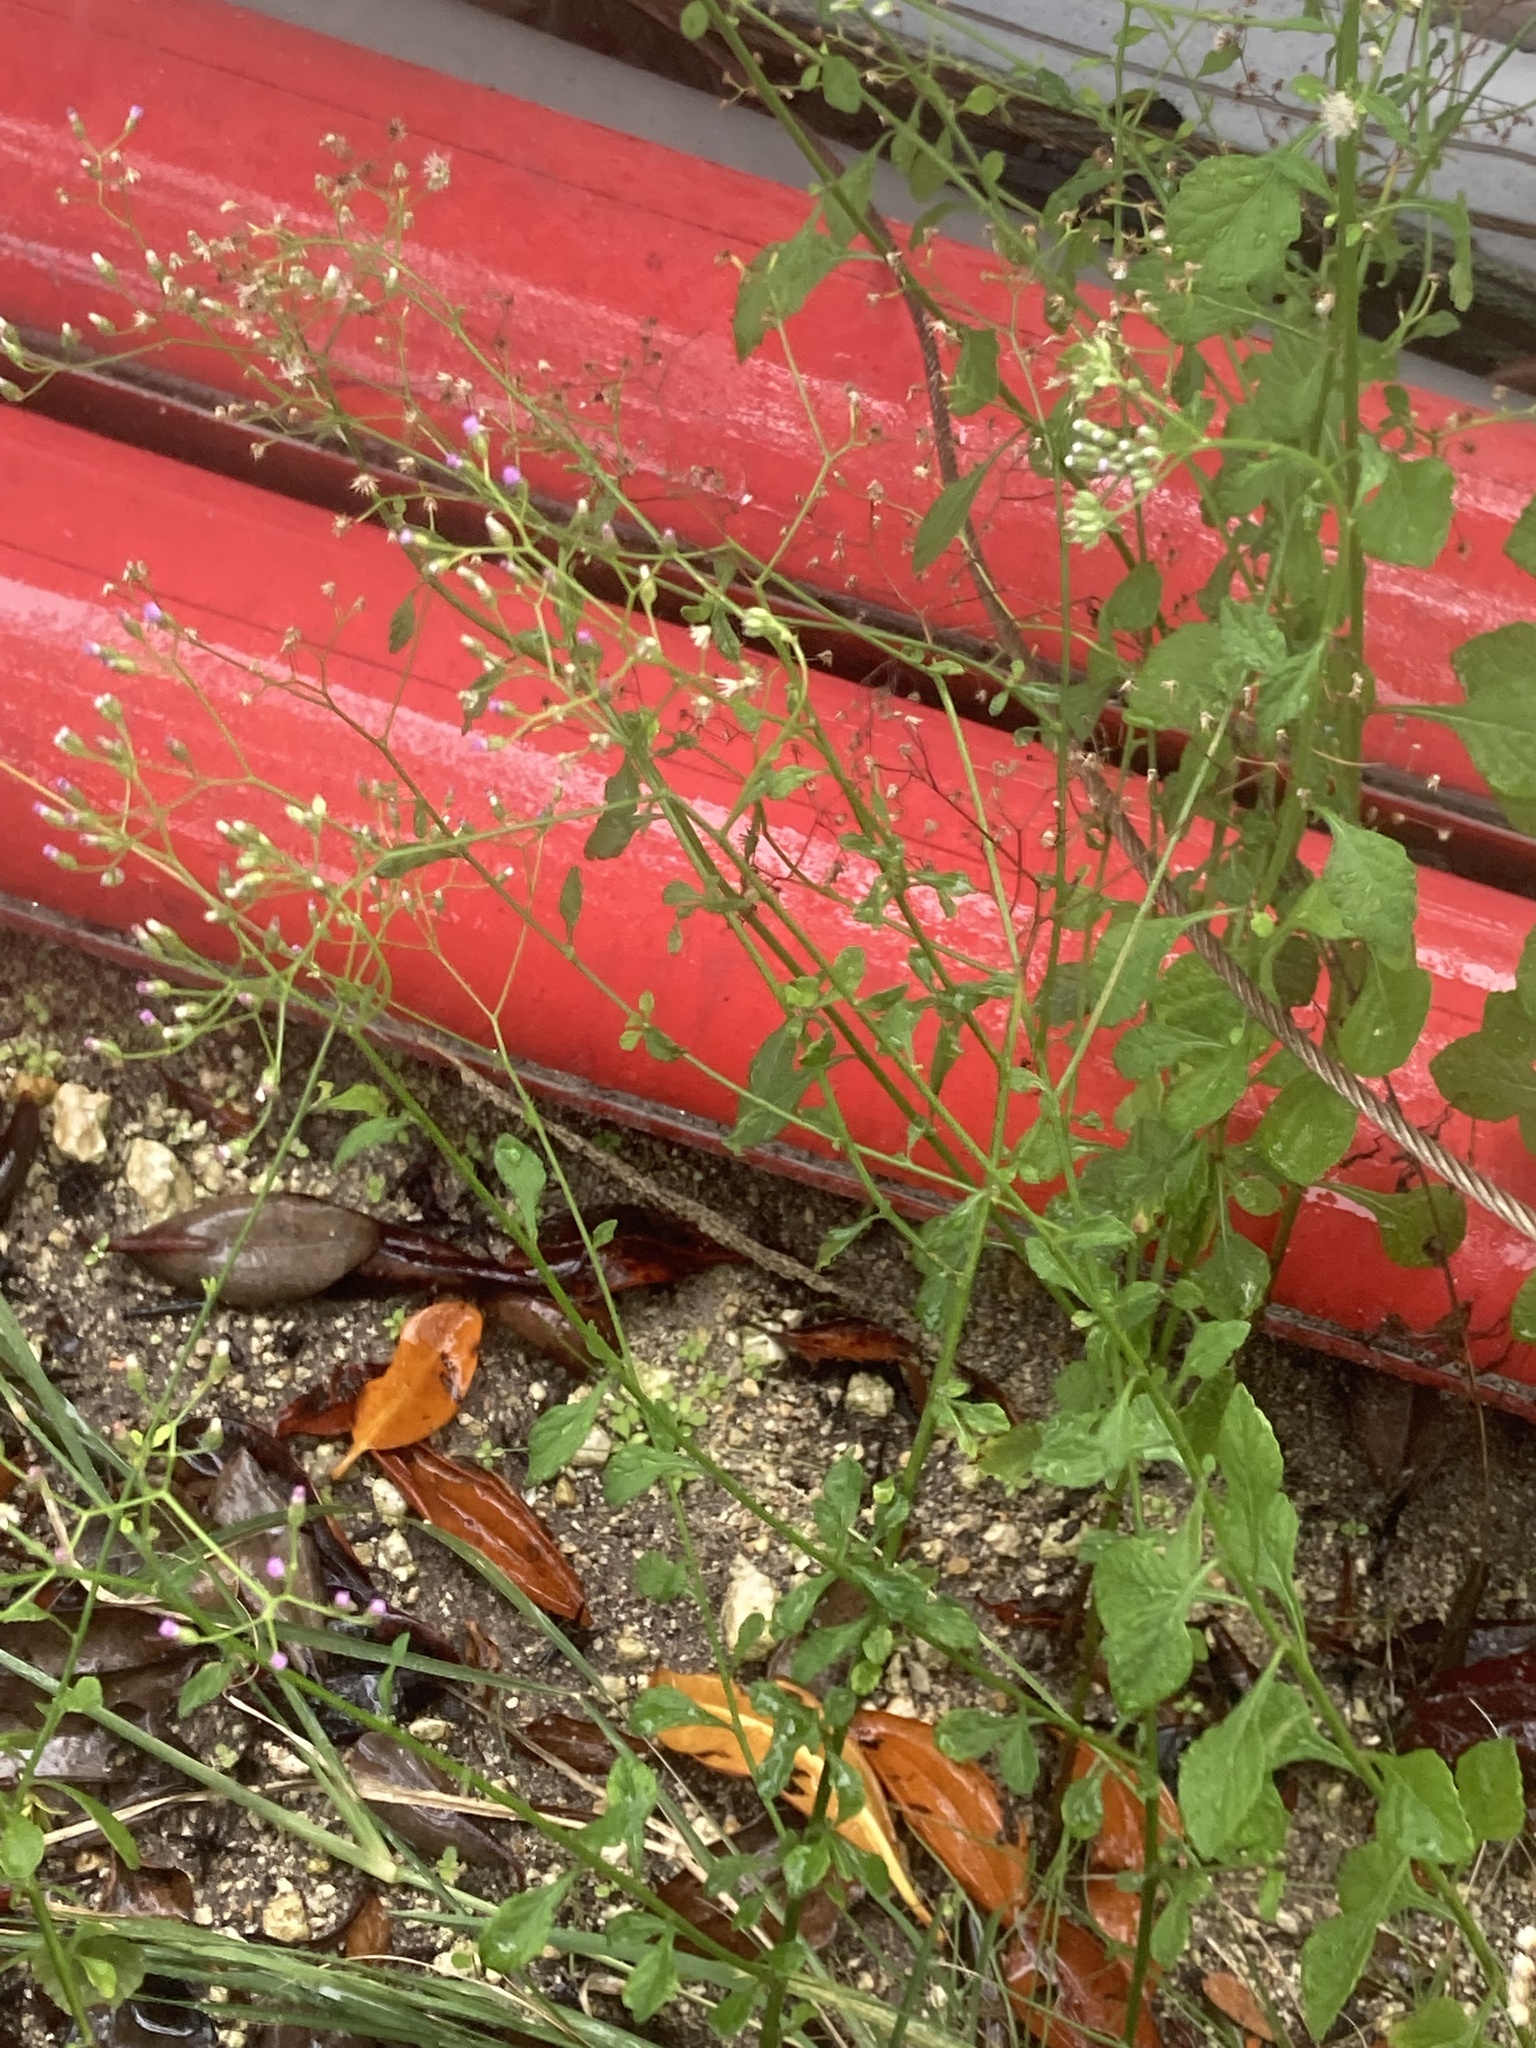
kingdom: Plantae
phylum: Tracheophyta
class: Magnoliopsida
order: Asterales
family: Asteraceae
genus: Cyanthillium
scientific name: Cyanthillium cinereum
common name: Little ironweed
